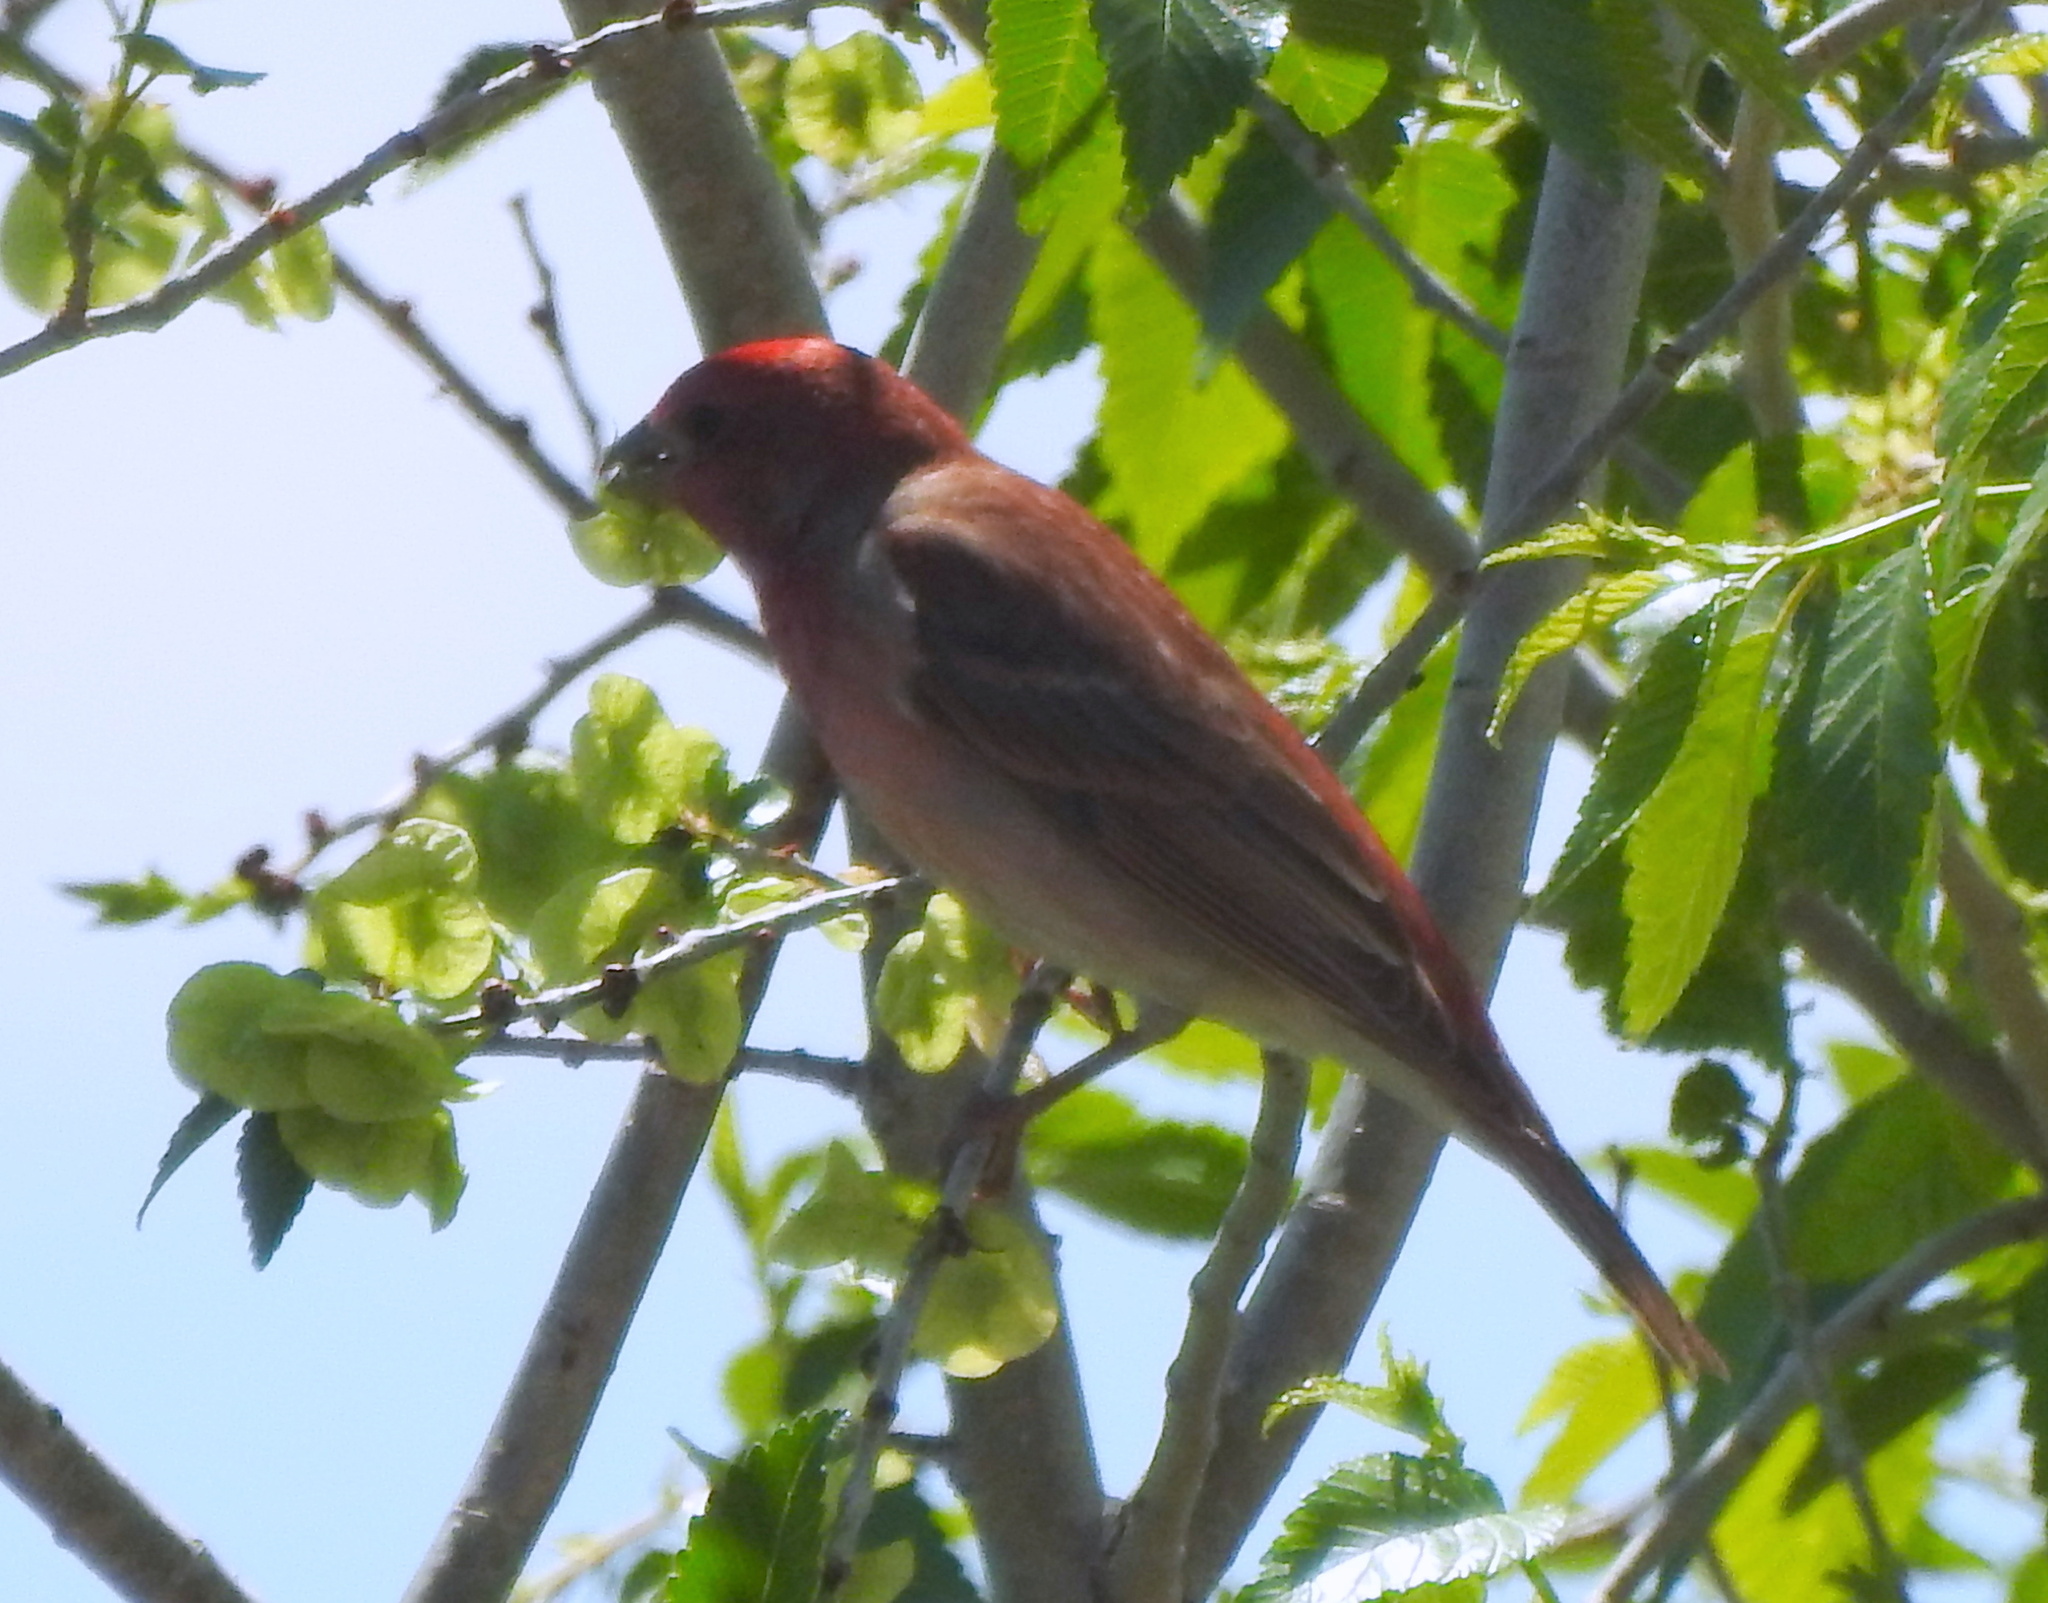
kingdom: Animalia
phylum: Chordata
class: Aves
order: Passeriformes
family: Fringillidae
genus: Carpodacus
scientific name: Carpodacus erythrinus
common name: Common rosefinch
